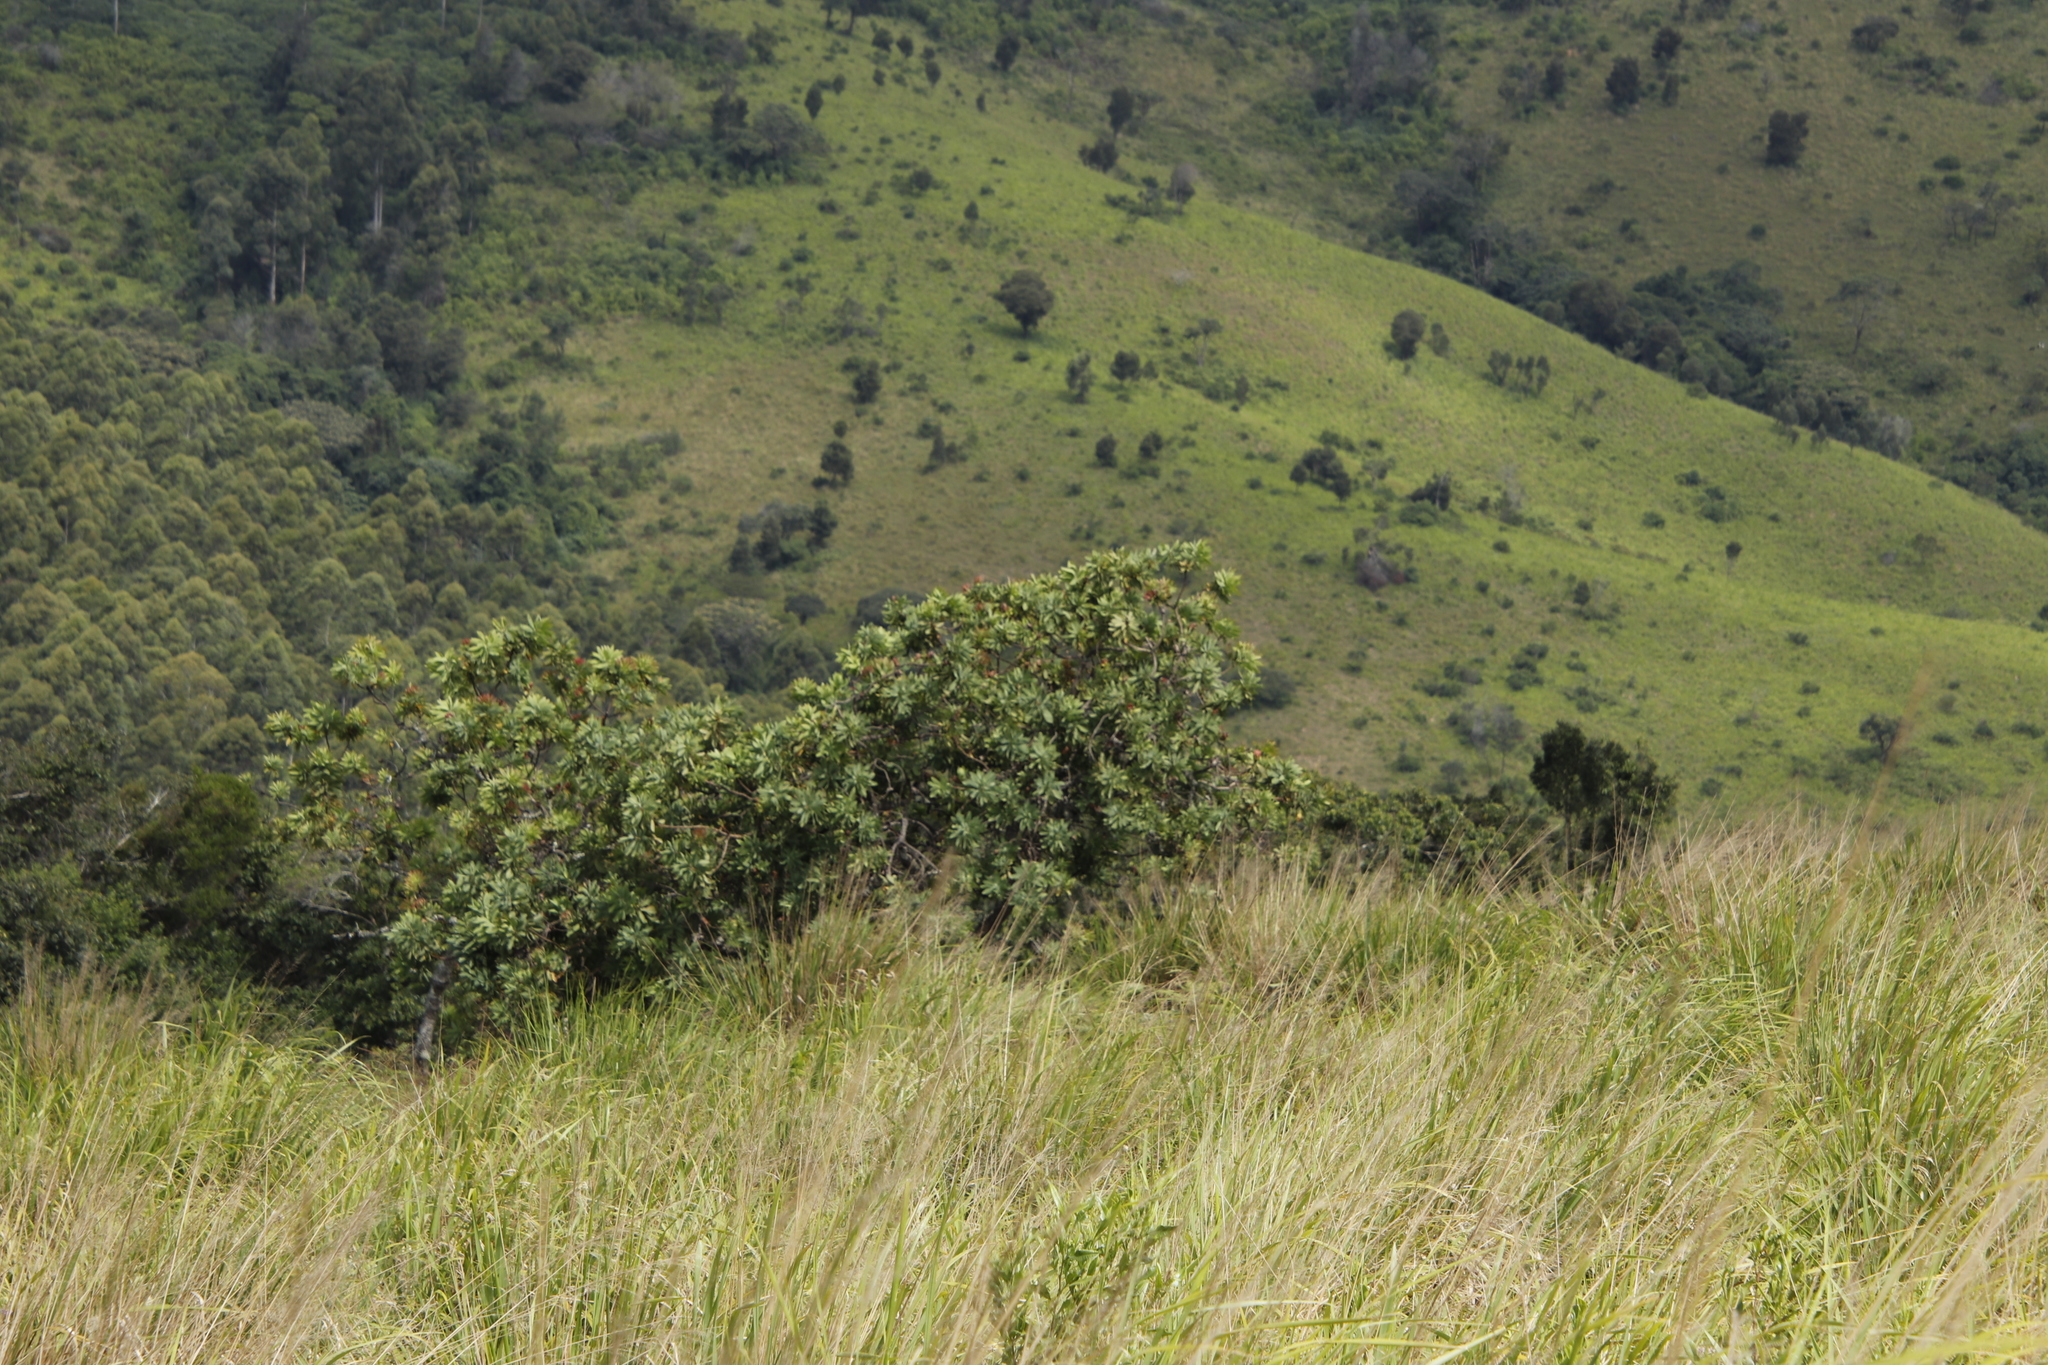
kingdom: Plantae
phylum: Tracheophyta
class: Magnoliopsida
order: Proteales
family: Proteaceae
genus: Protea
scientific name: Protea caffra
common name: Common sugarbush
